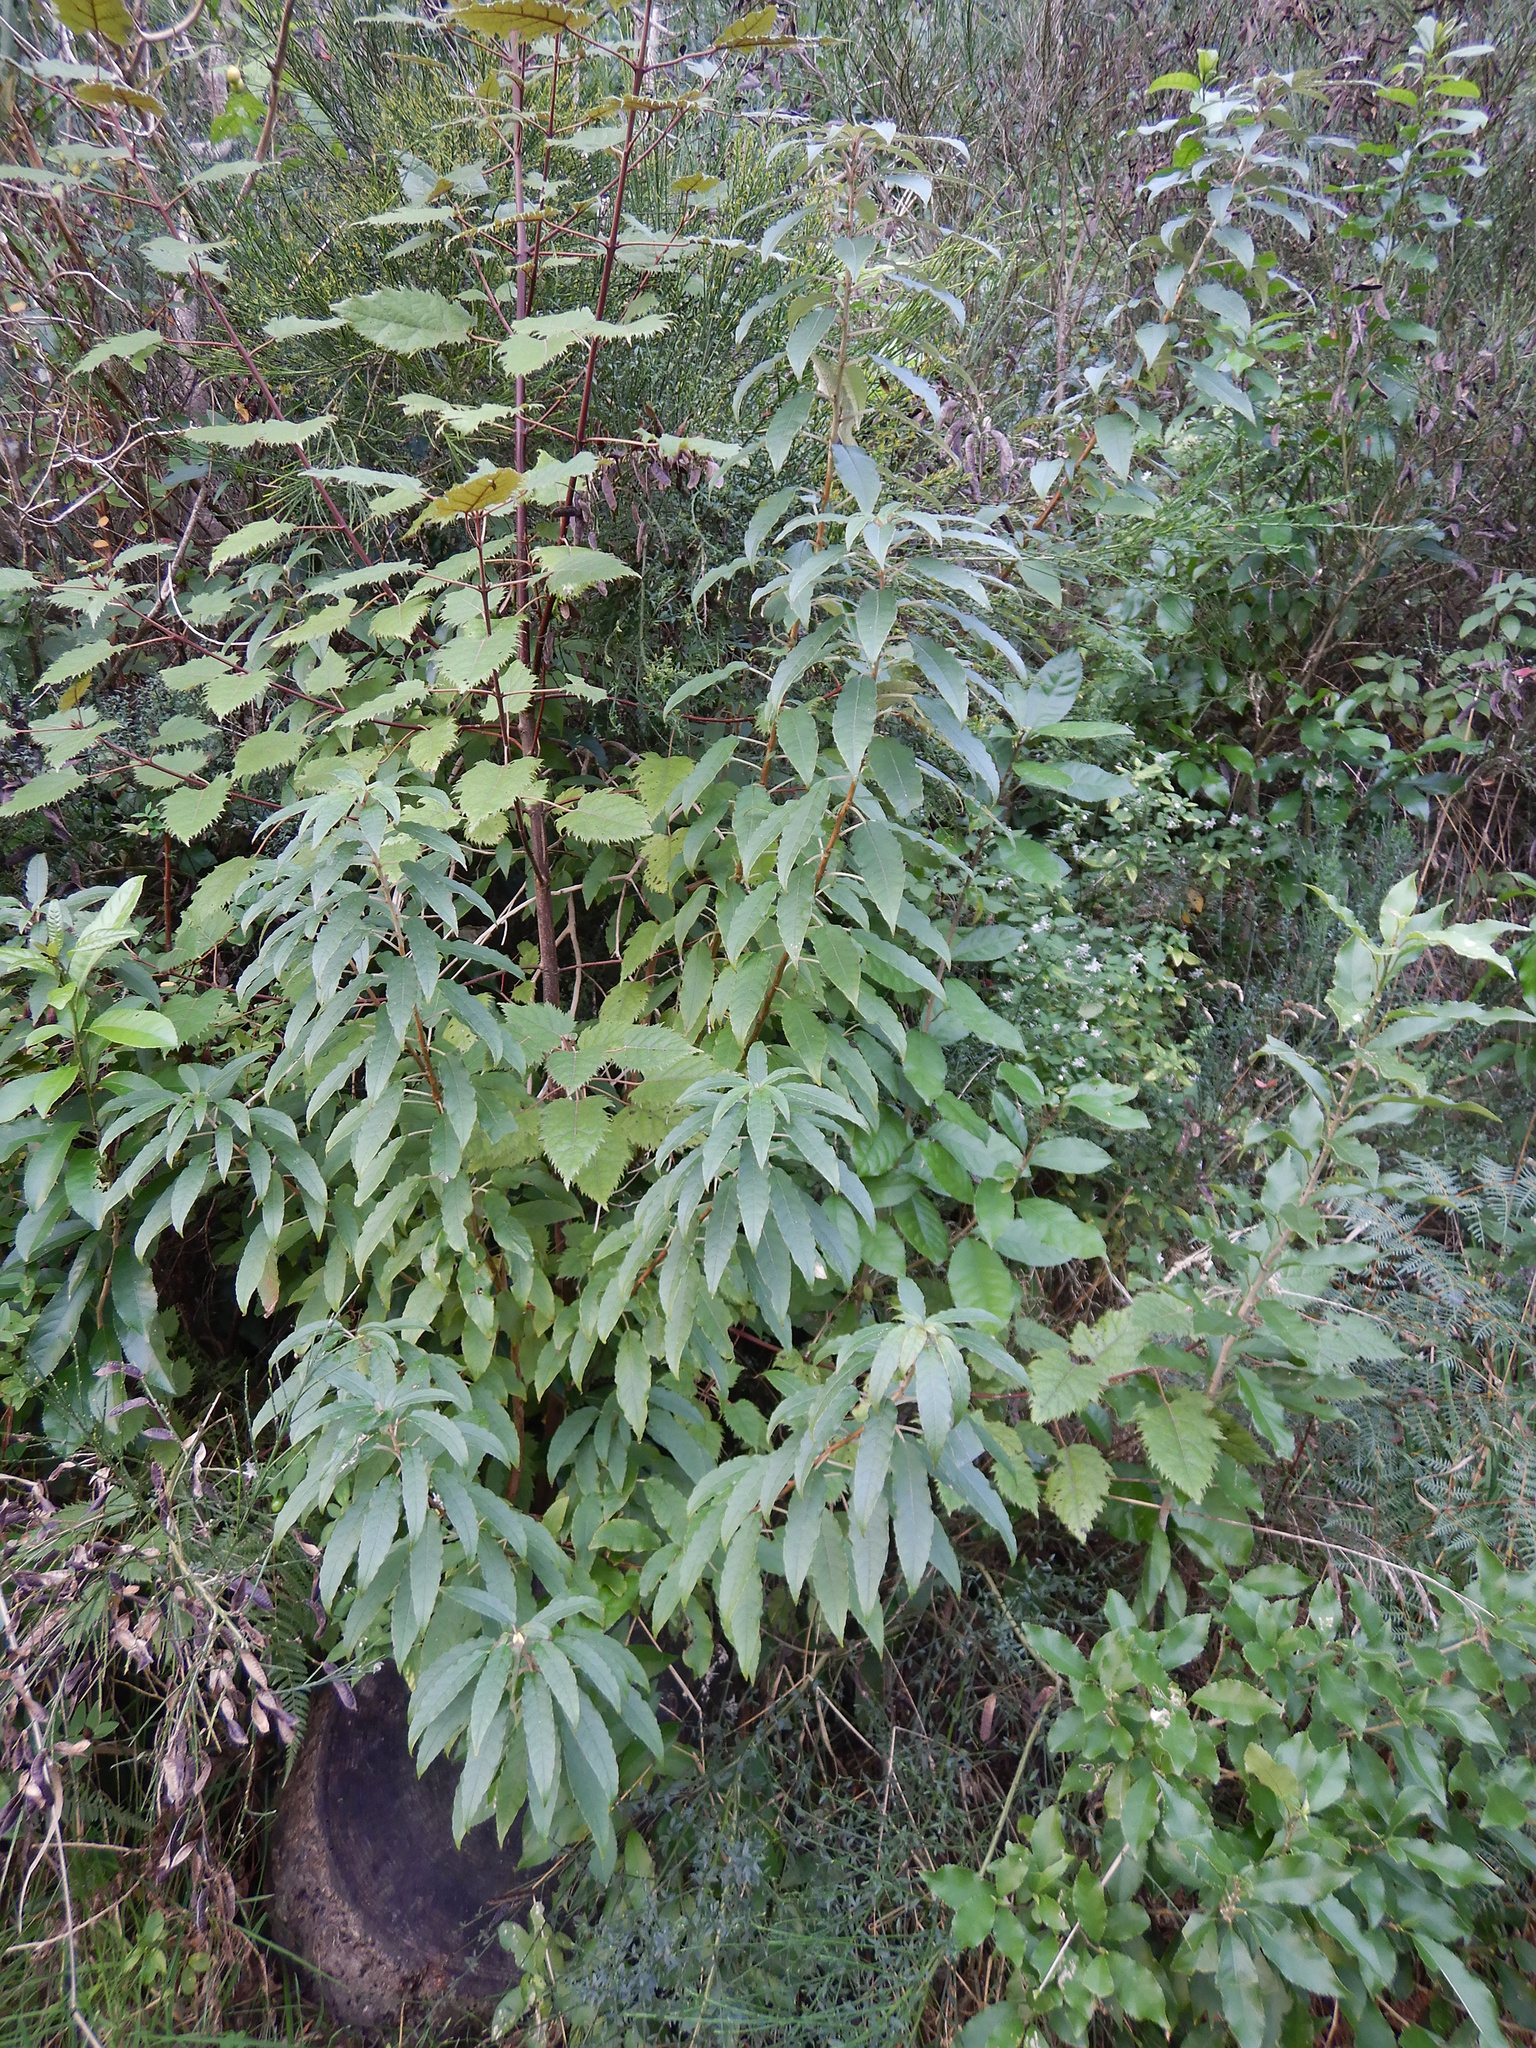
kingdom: Plantae
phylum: Tracheophyta
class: Magnoliopsida
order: Myrtales
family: Onagraceae
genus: Fuchsia
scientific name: Fuchsia excorticata
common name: Tree fuchsia
